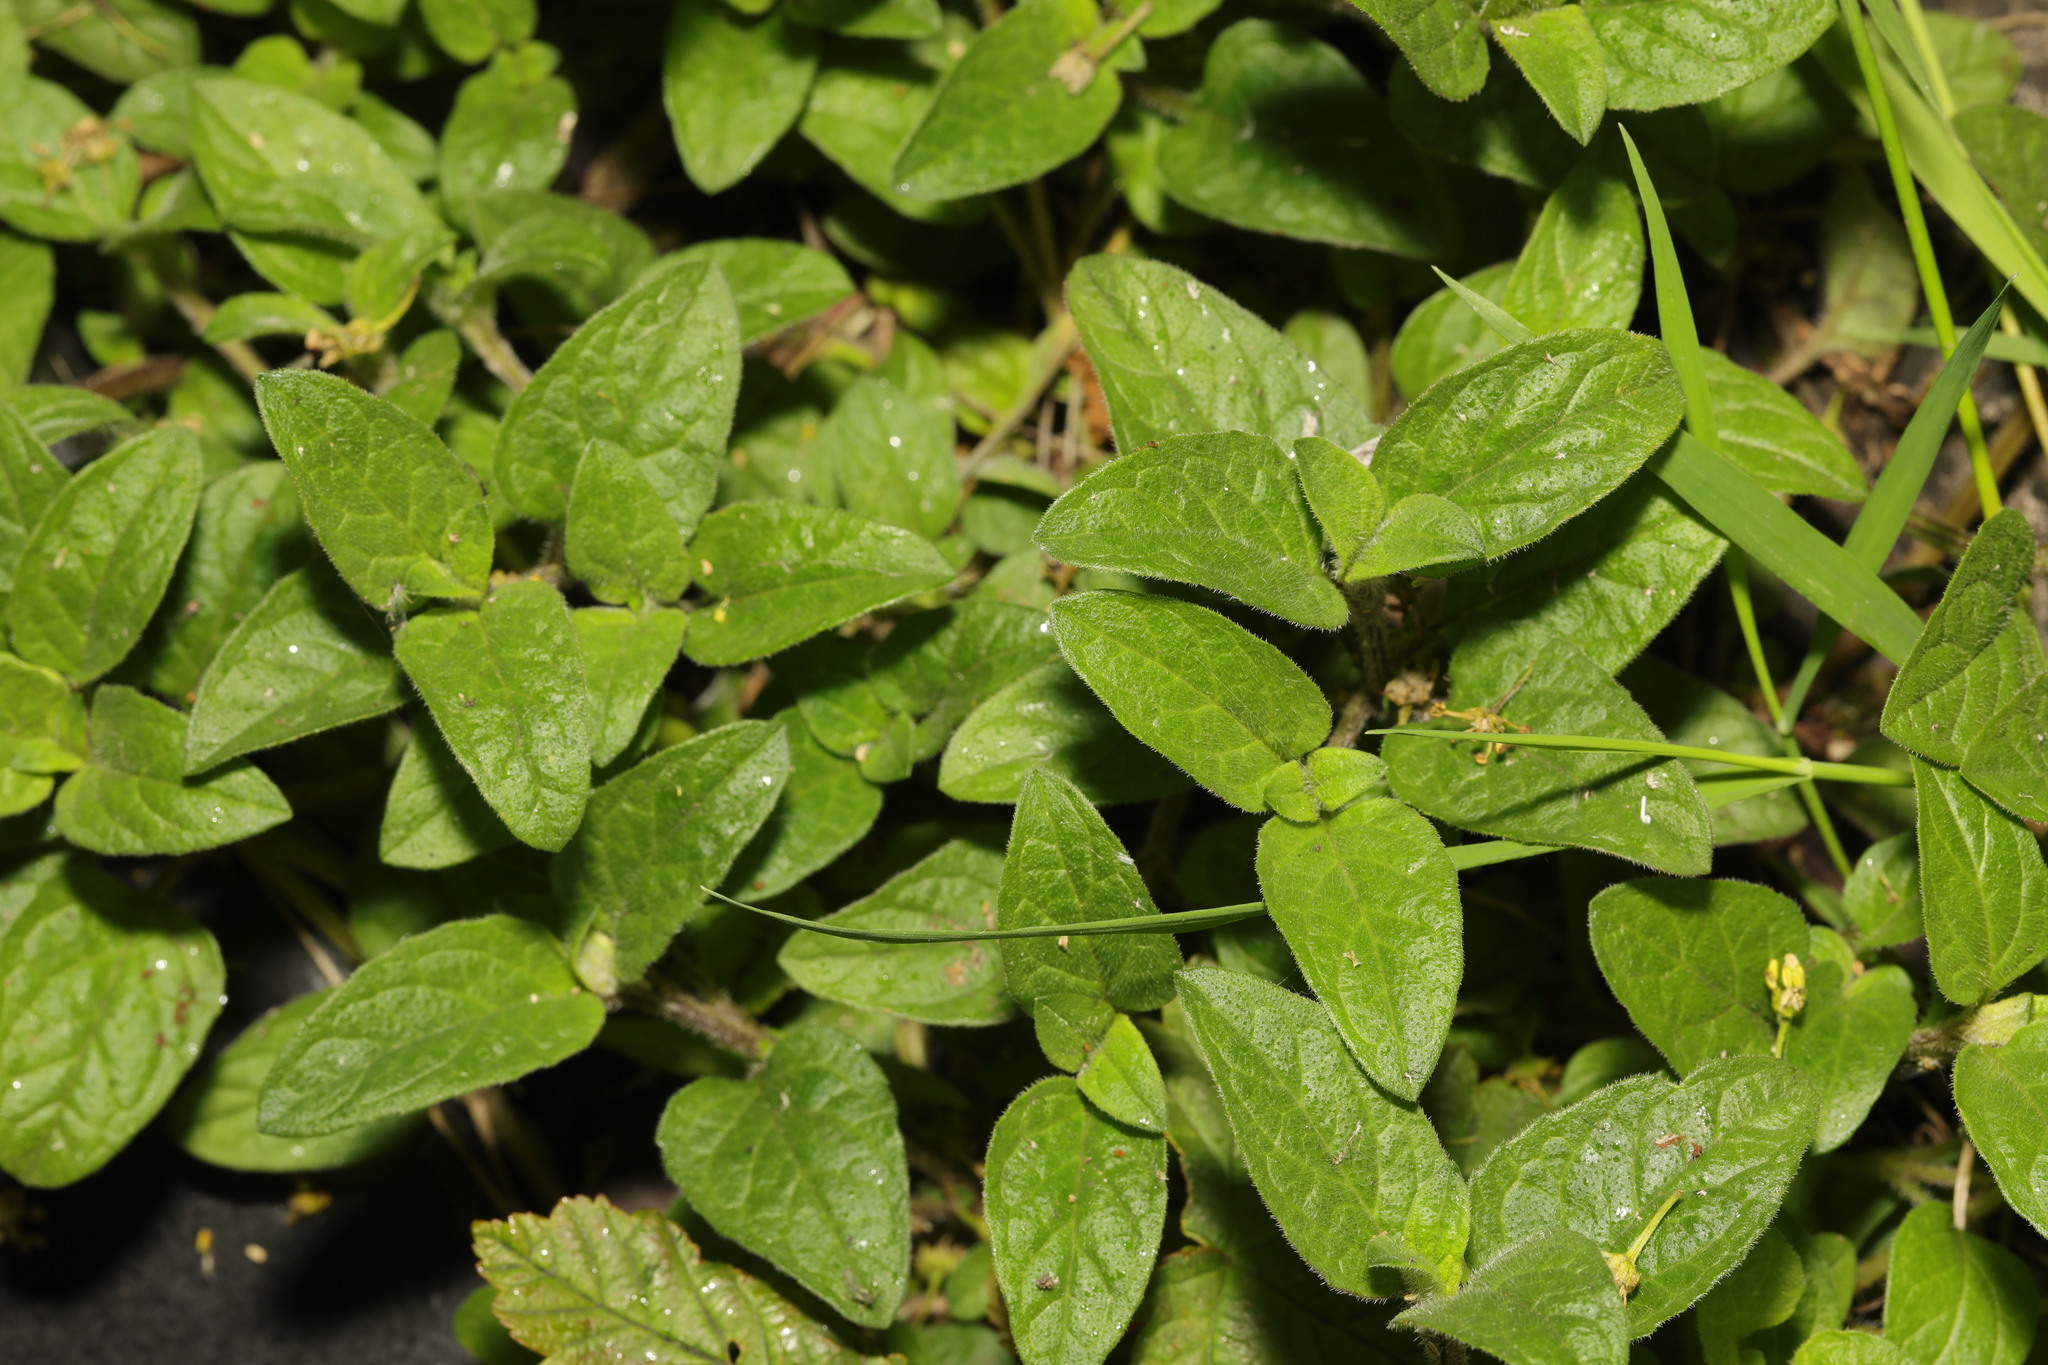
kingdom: Plantae
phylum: Tracheophyta
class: Magnoliopsida
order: Lamiales
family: Lamiaceae
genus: Prunella
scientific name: Prunella vulgaris
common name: Heal-all
